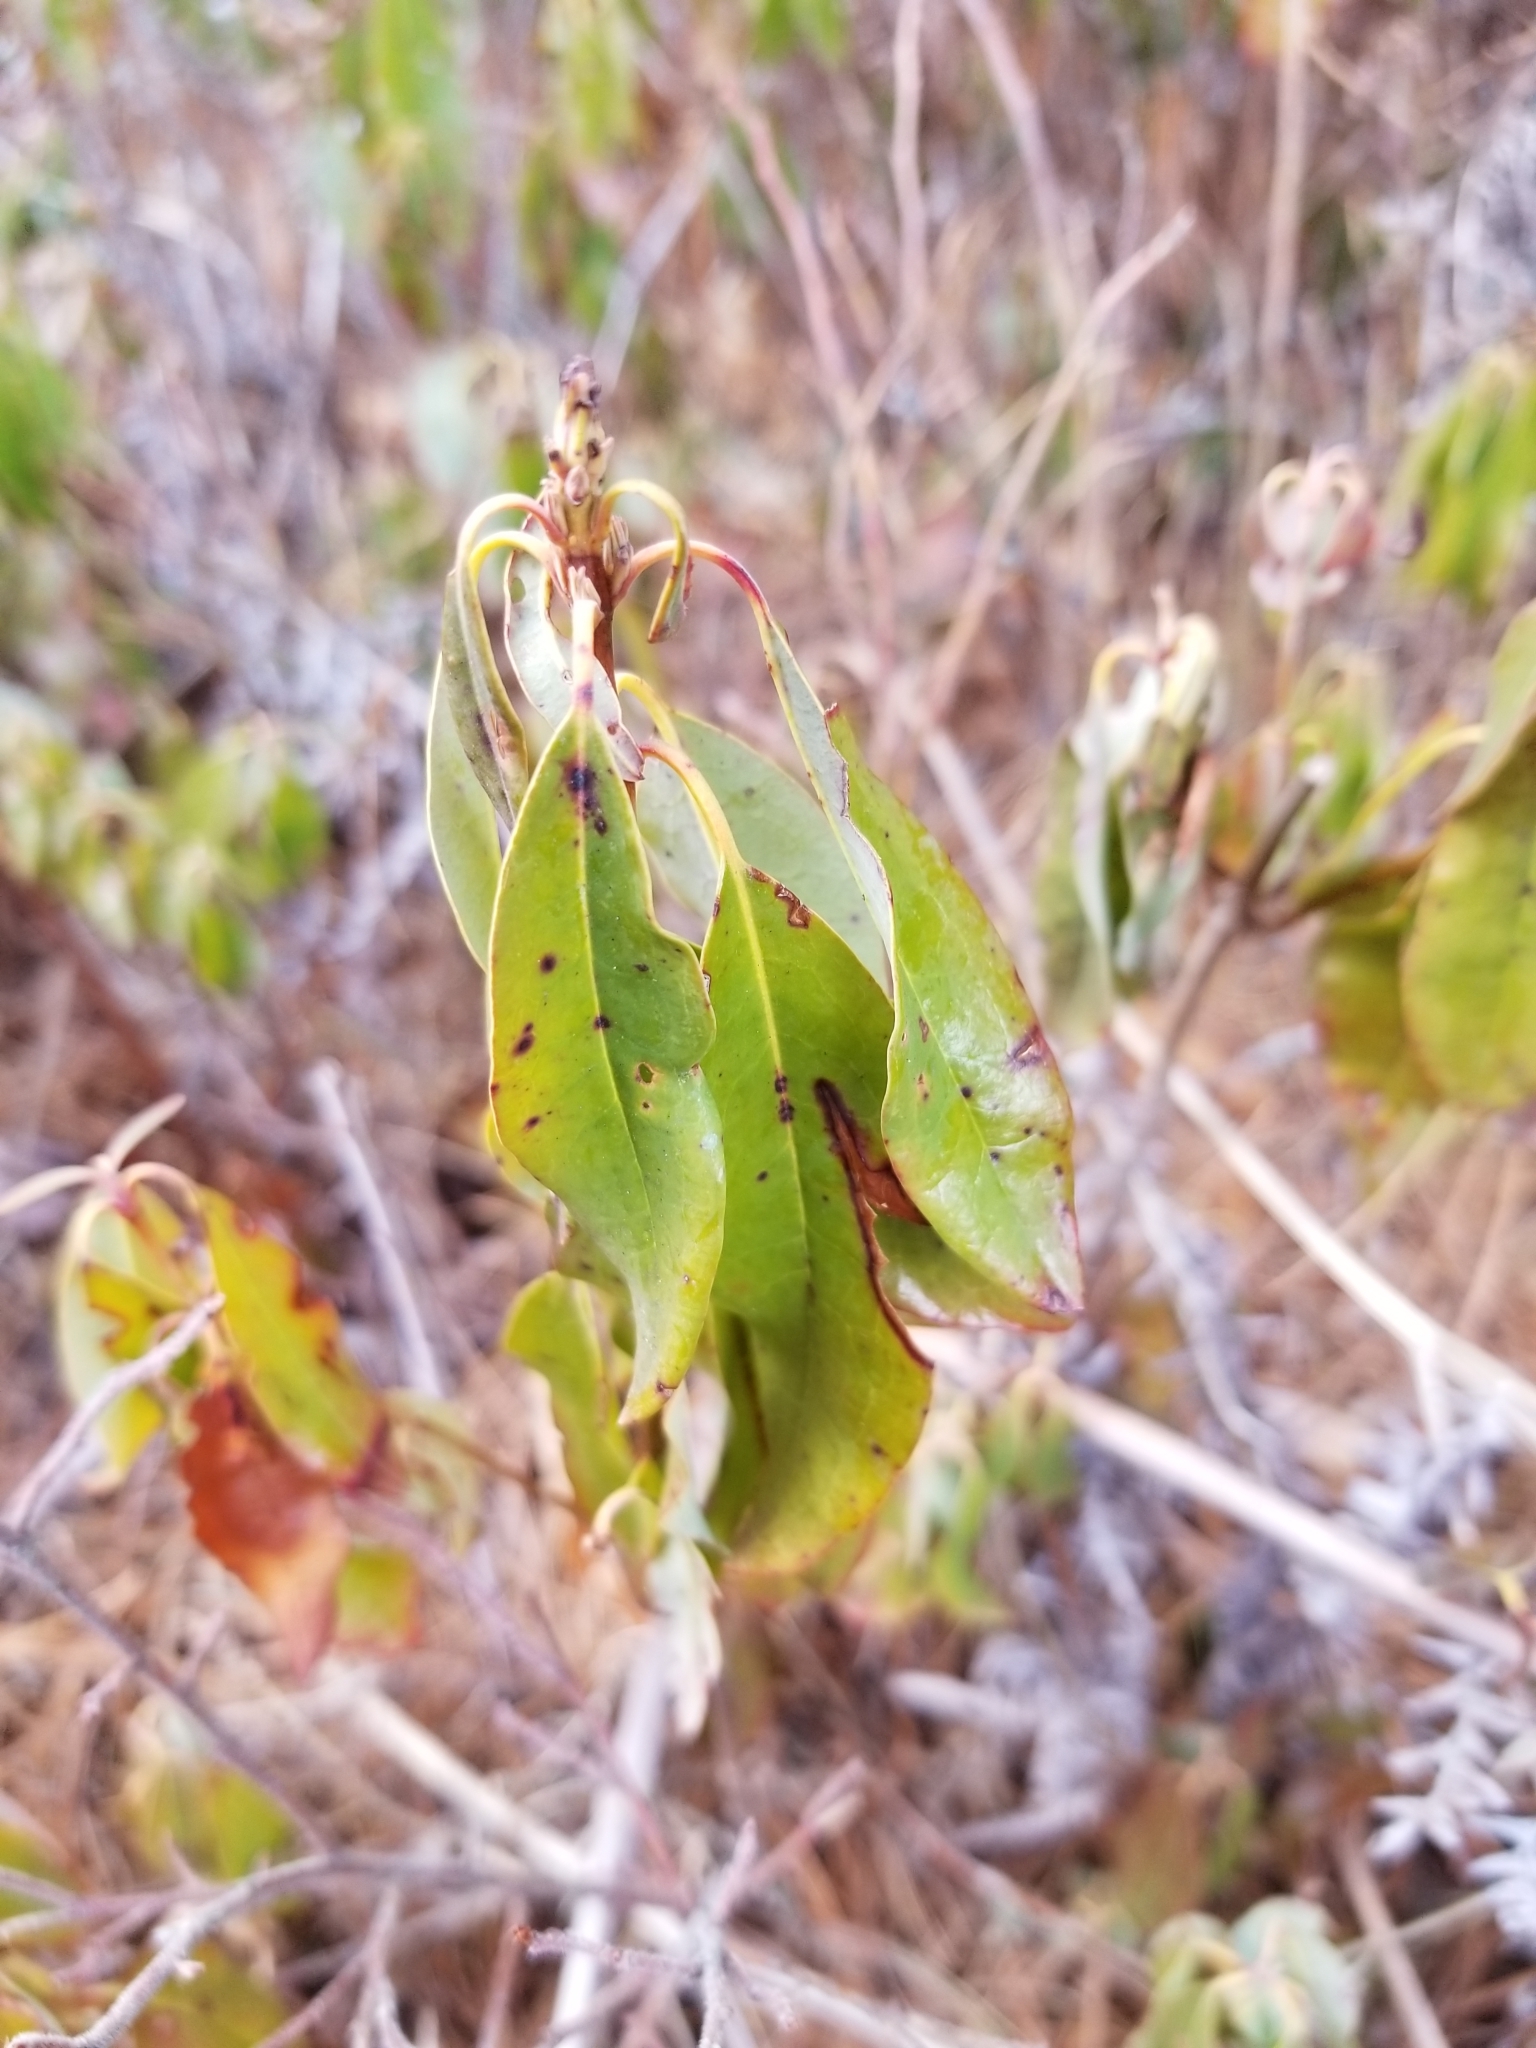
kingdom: Plantae
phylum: Tracheophyta
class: Magnoliopsida
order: Ericales
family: Ericaceae
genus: Kalmia
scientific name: Kalmia angustifolia
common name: Sheep-laurel
